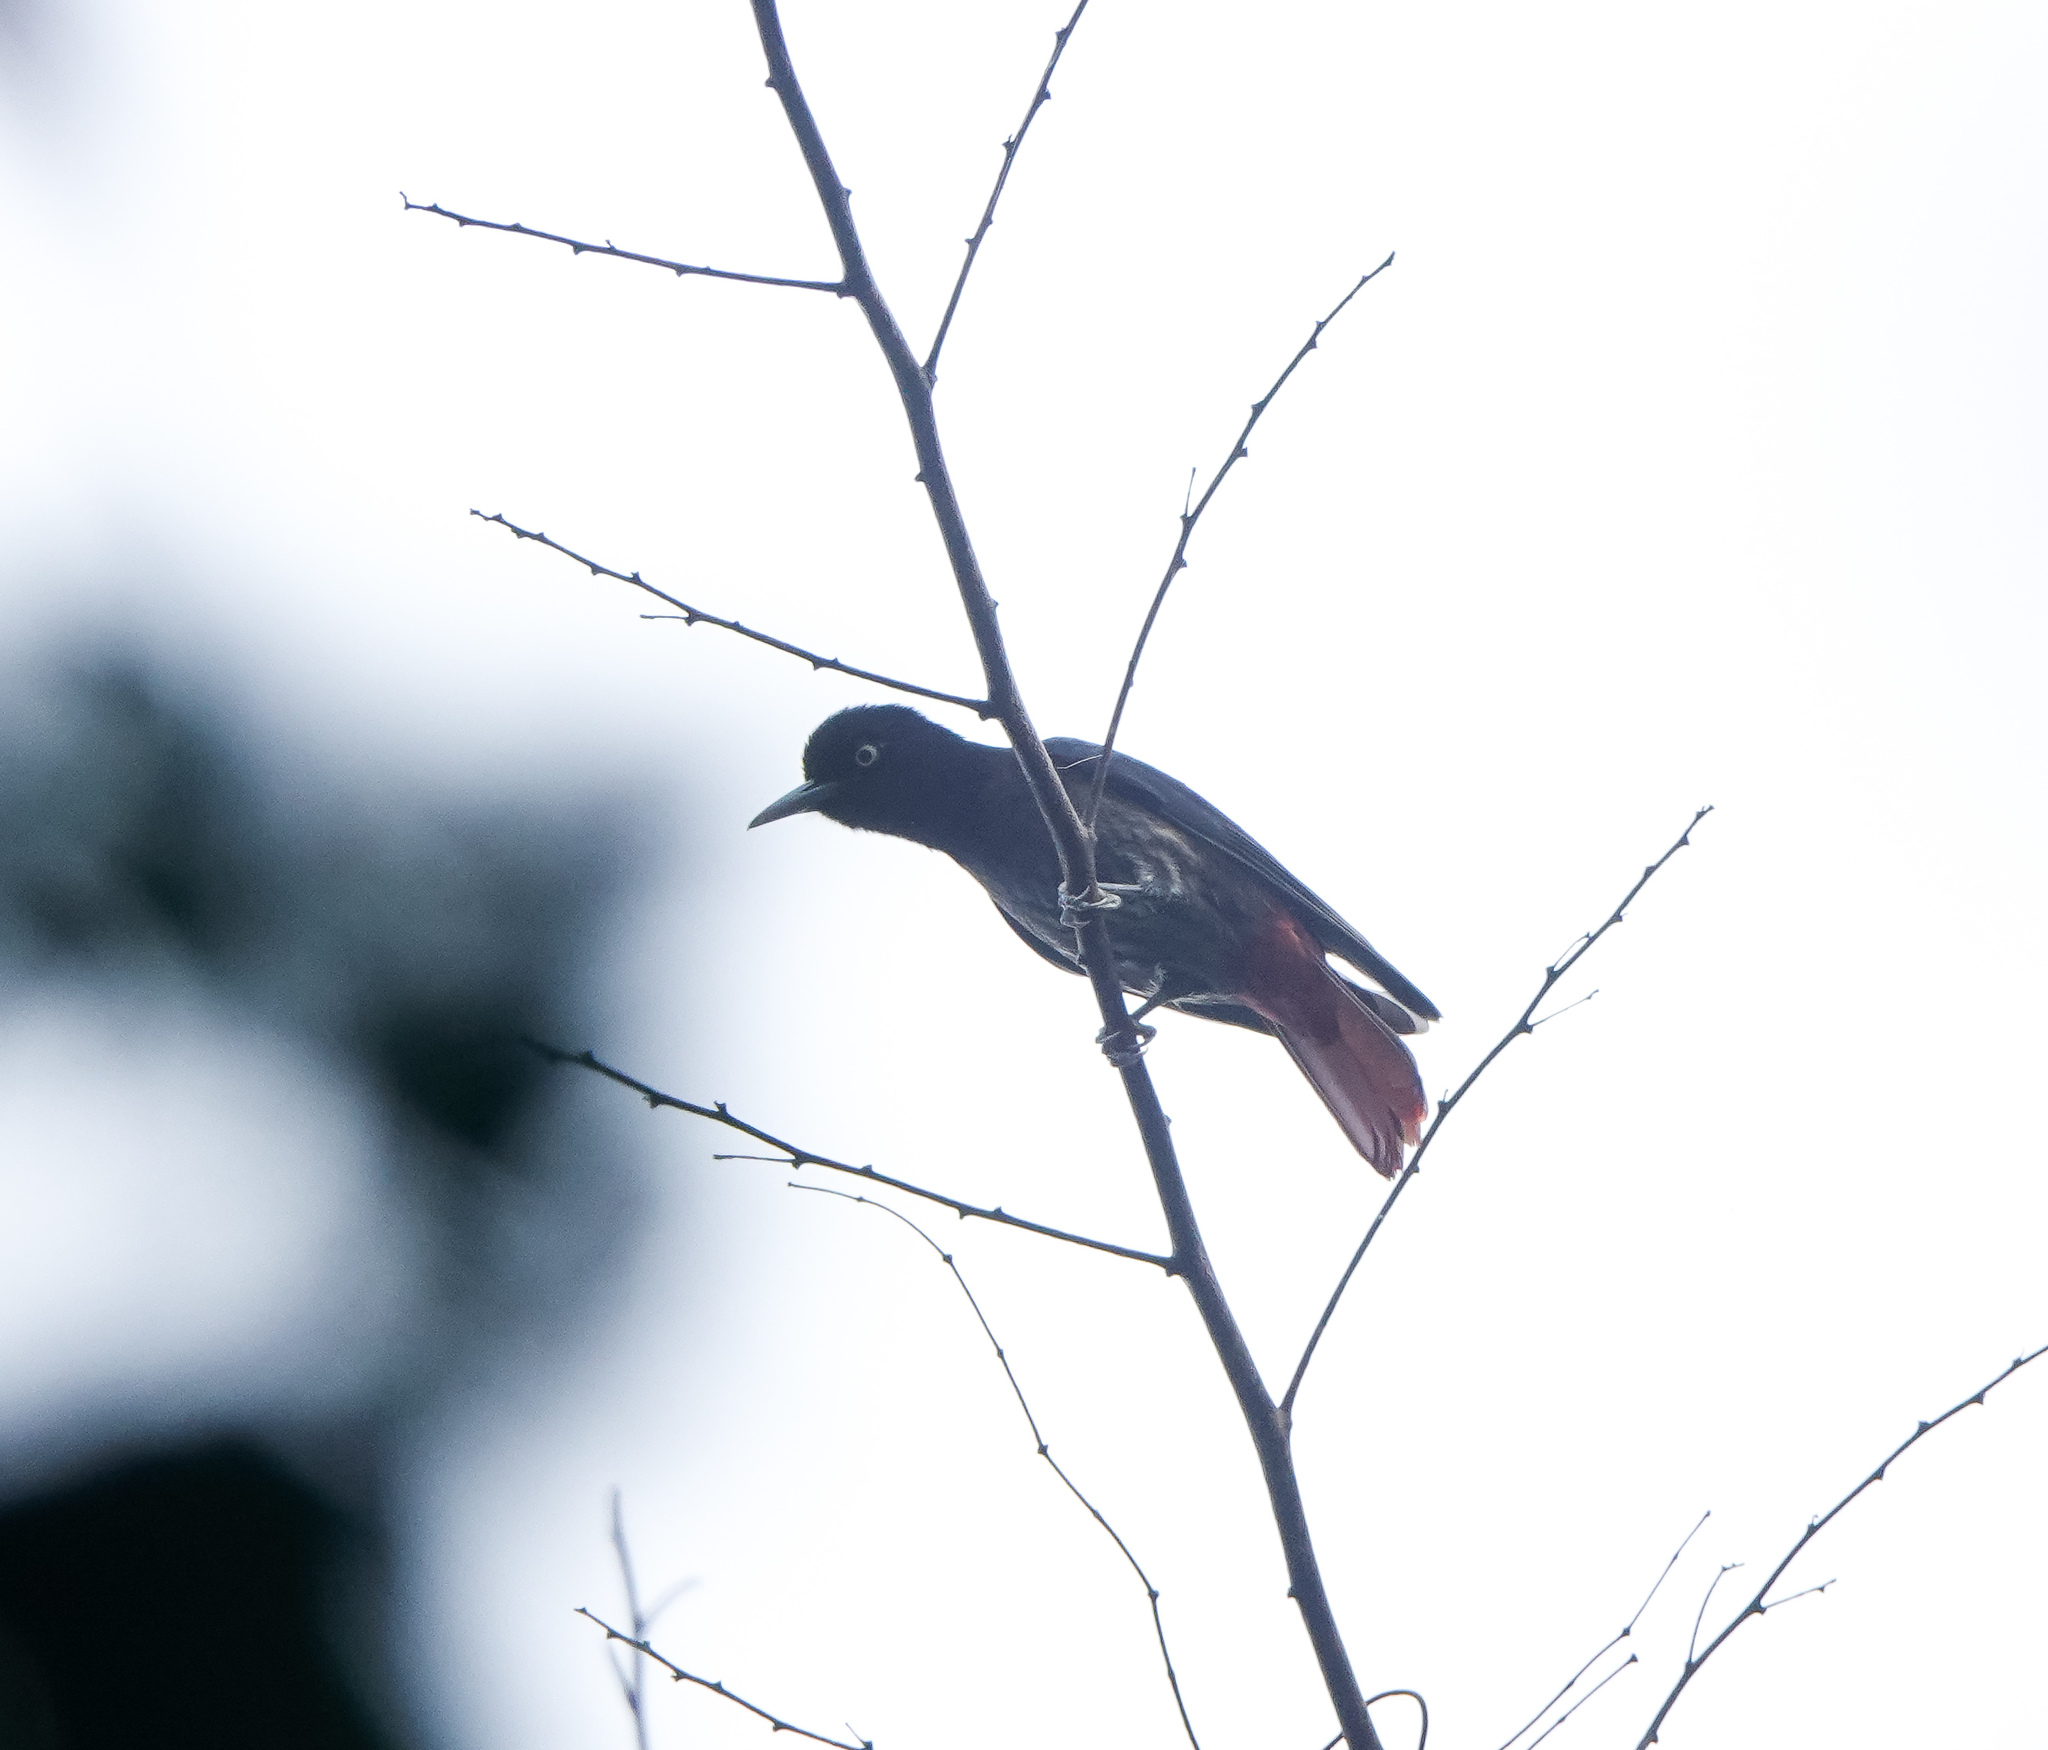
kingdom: Animalia
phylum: Chordata
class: Aves
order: Passeriformes
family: Oriolidae
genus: Oriolus
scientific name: Oriolus traillii
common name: Maroon oriole
